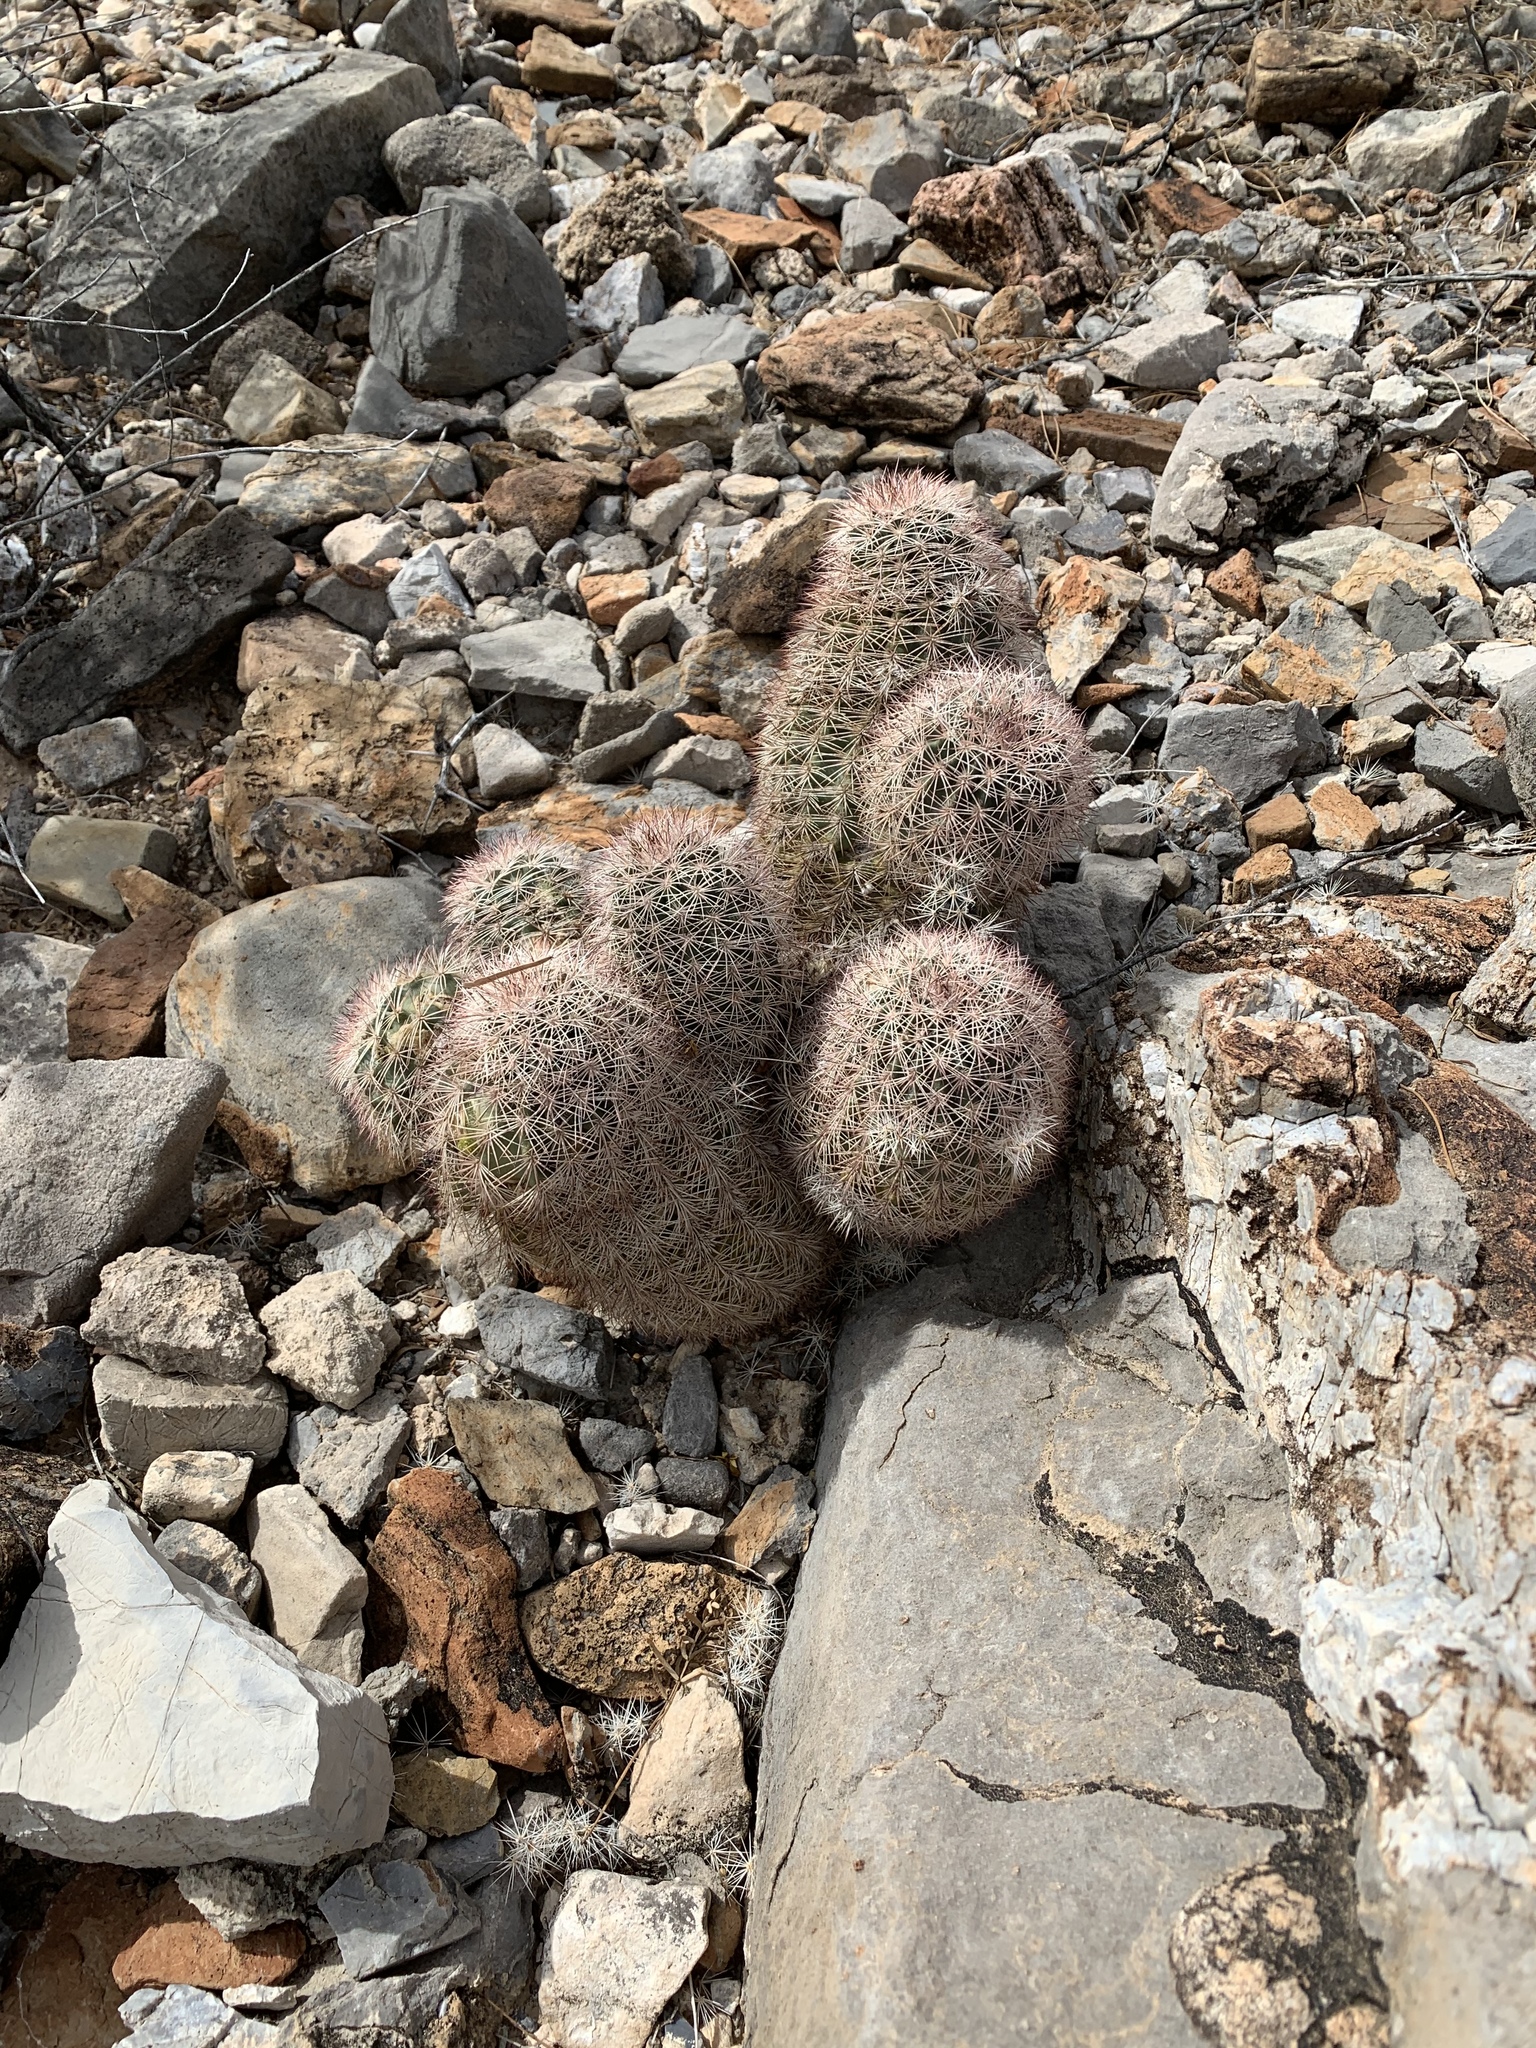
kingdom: Plantae
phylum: Tracheophyta
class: Magnoliopsida
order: Caryophyllales
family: Cactaceae
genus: Echinocereus
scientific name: Echinocereus dasyacanthus
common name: Spiny hedgehog cactus
